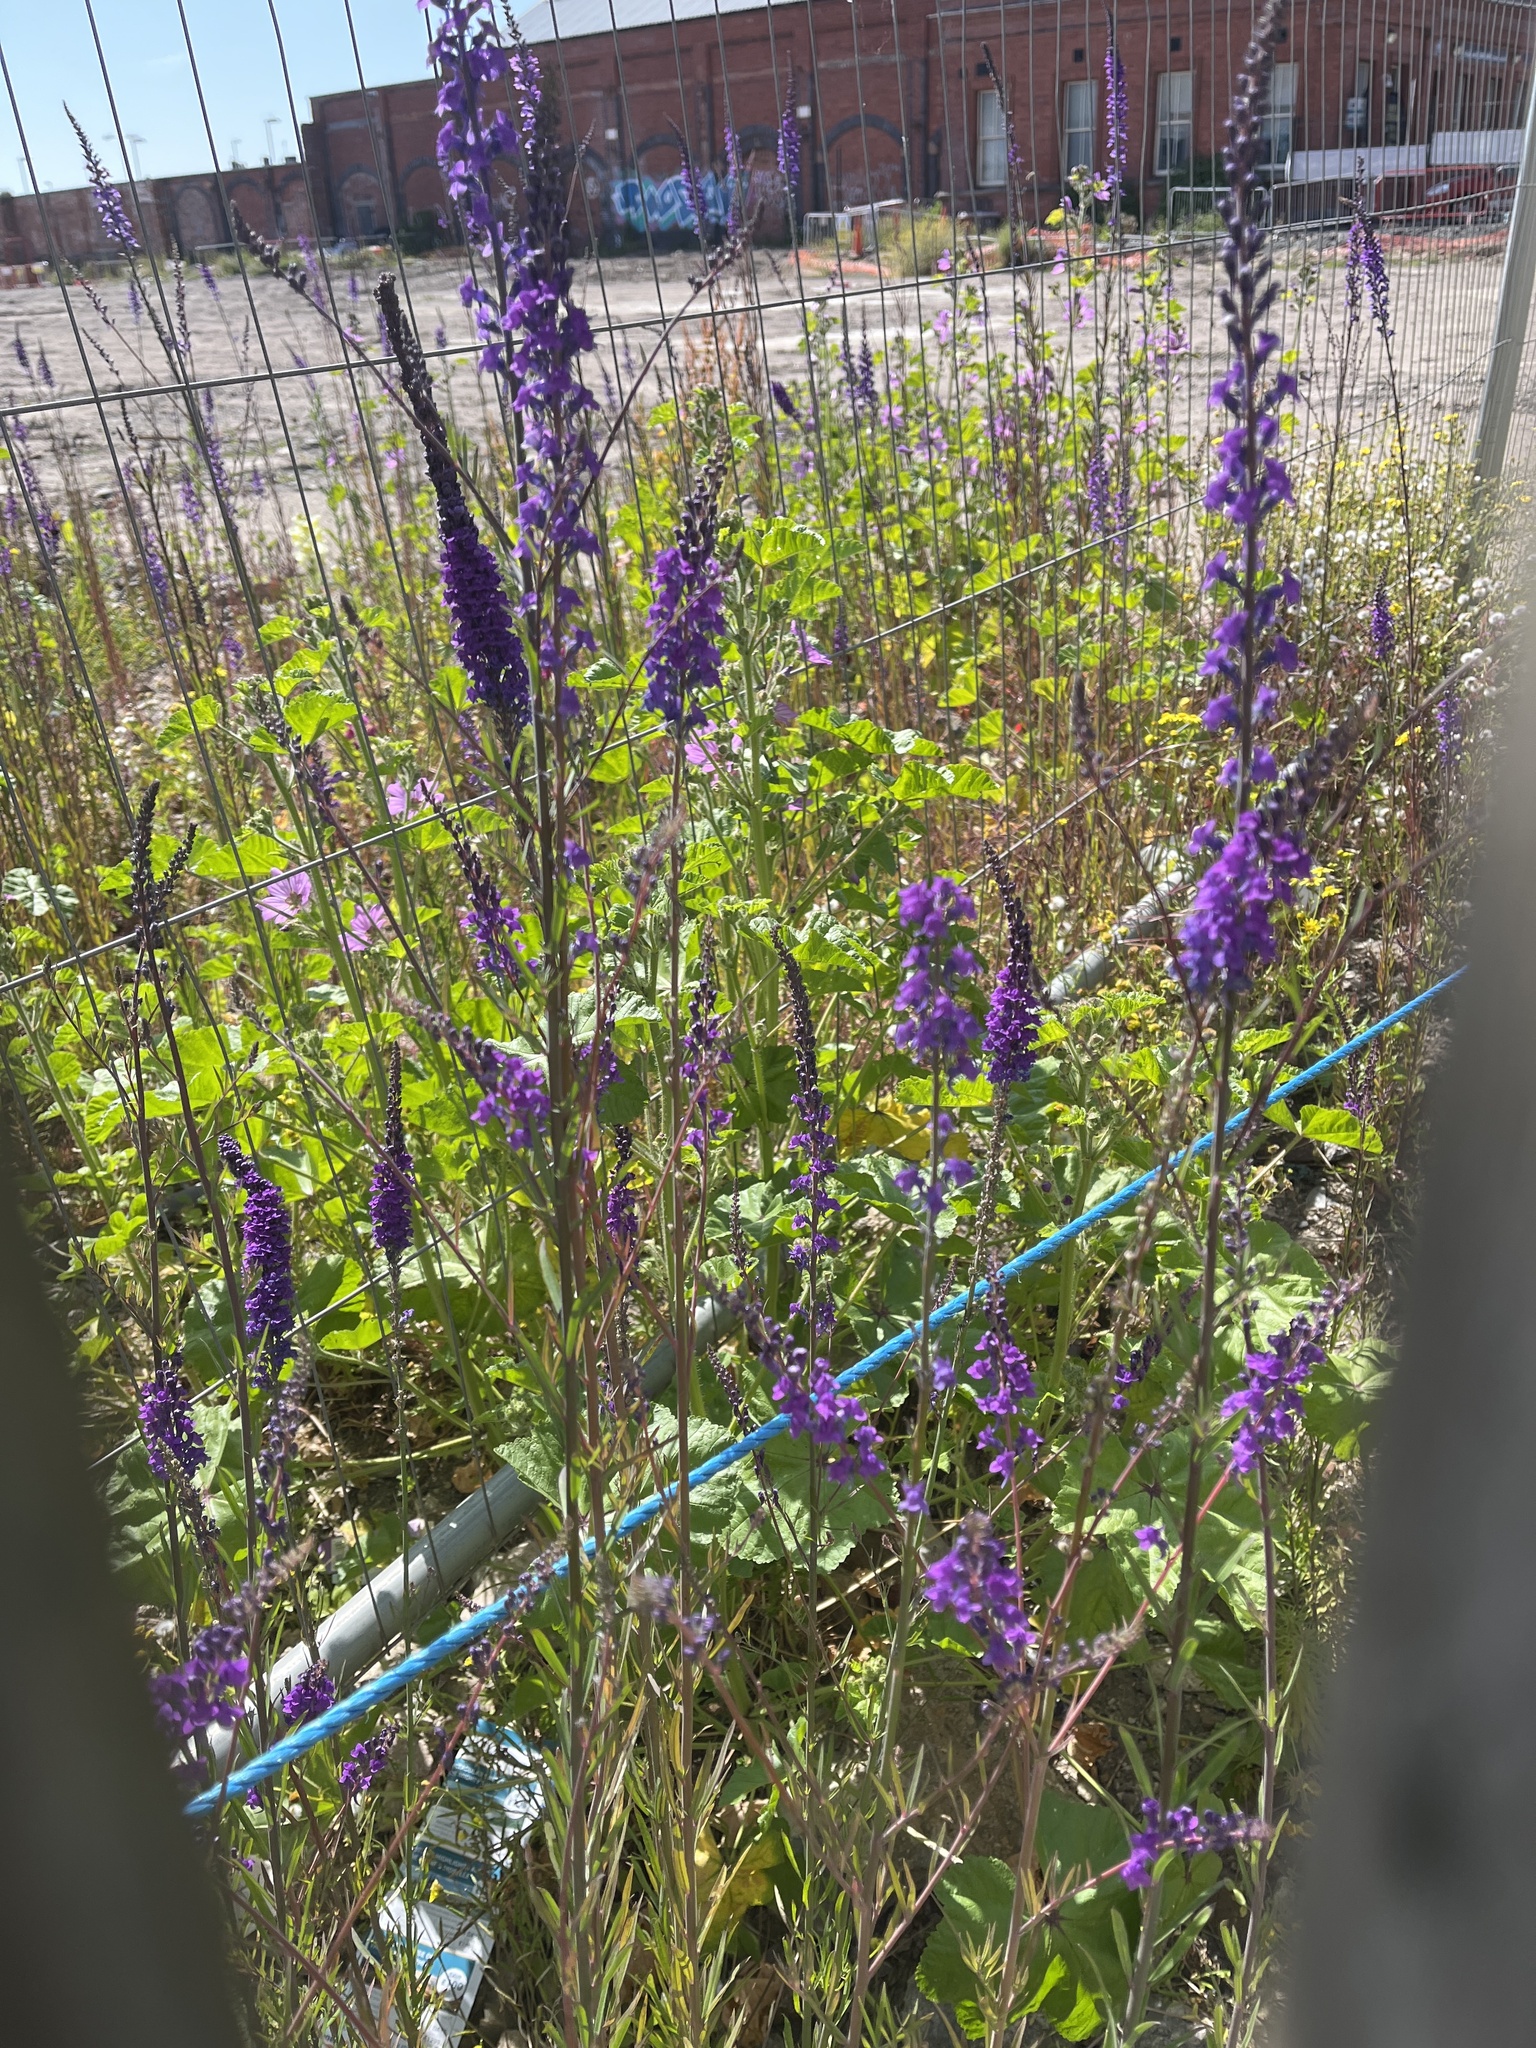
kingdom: Plantae
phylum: Tracheophyta
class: Magnoliopsida
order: Lamiales
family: Plantaginaceae
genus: Linaria
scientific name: Linaria purpurea
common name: Purple toadflax
